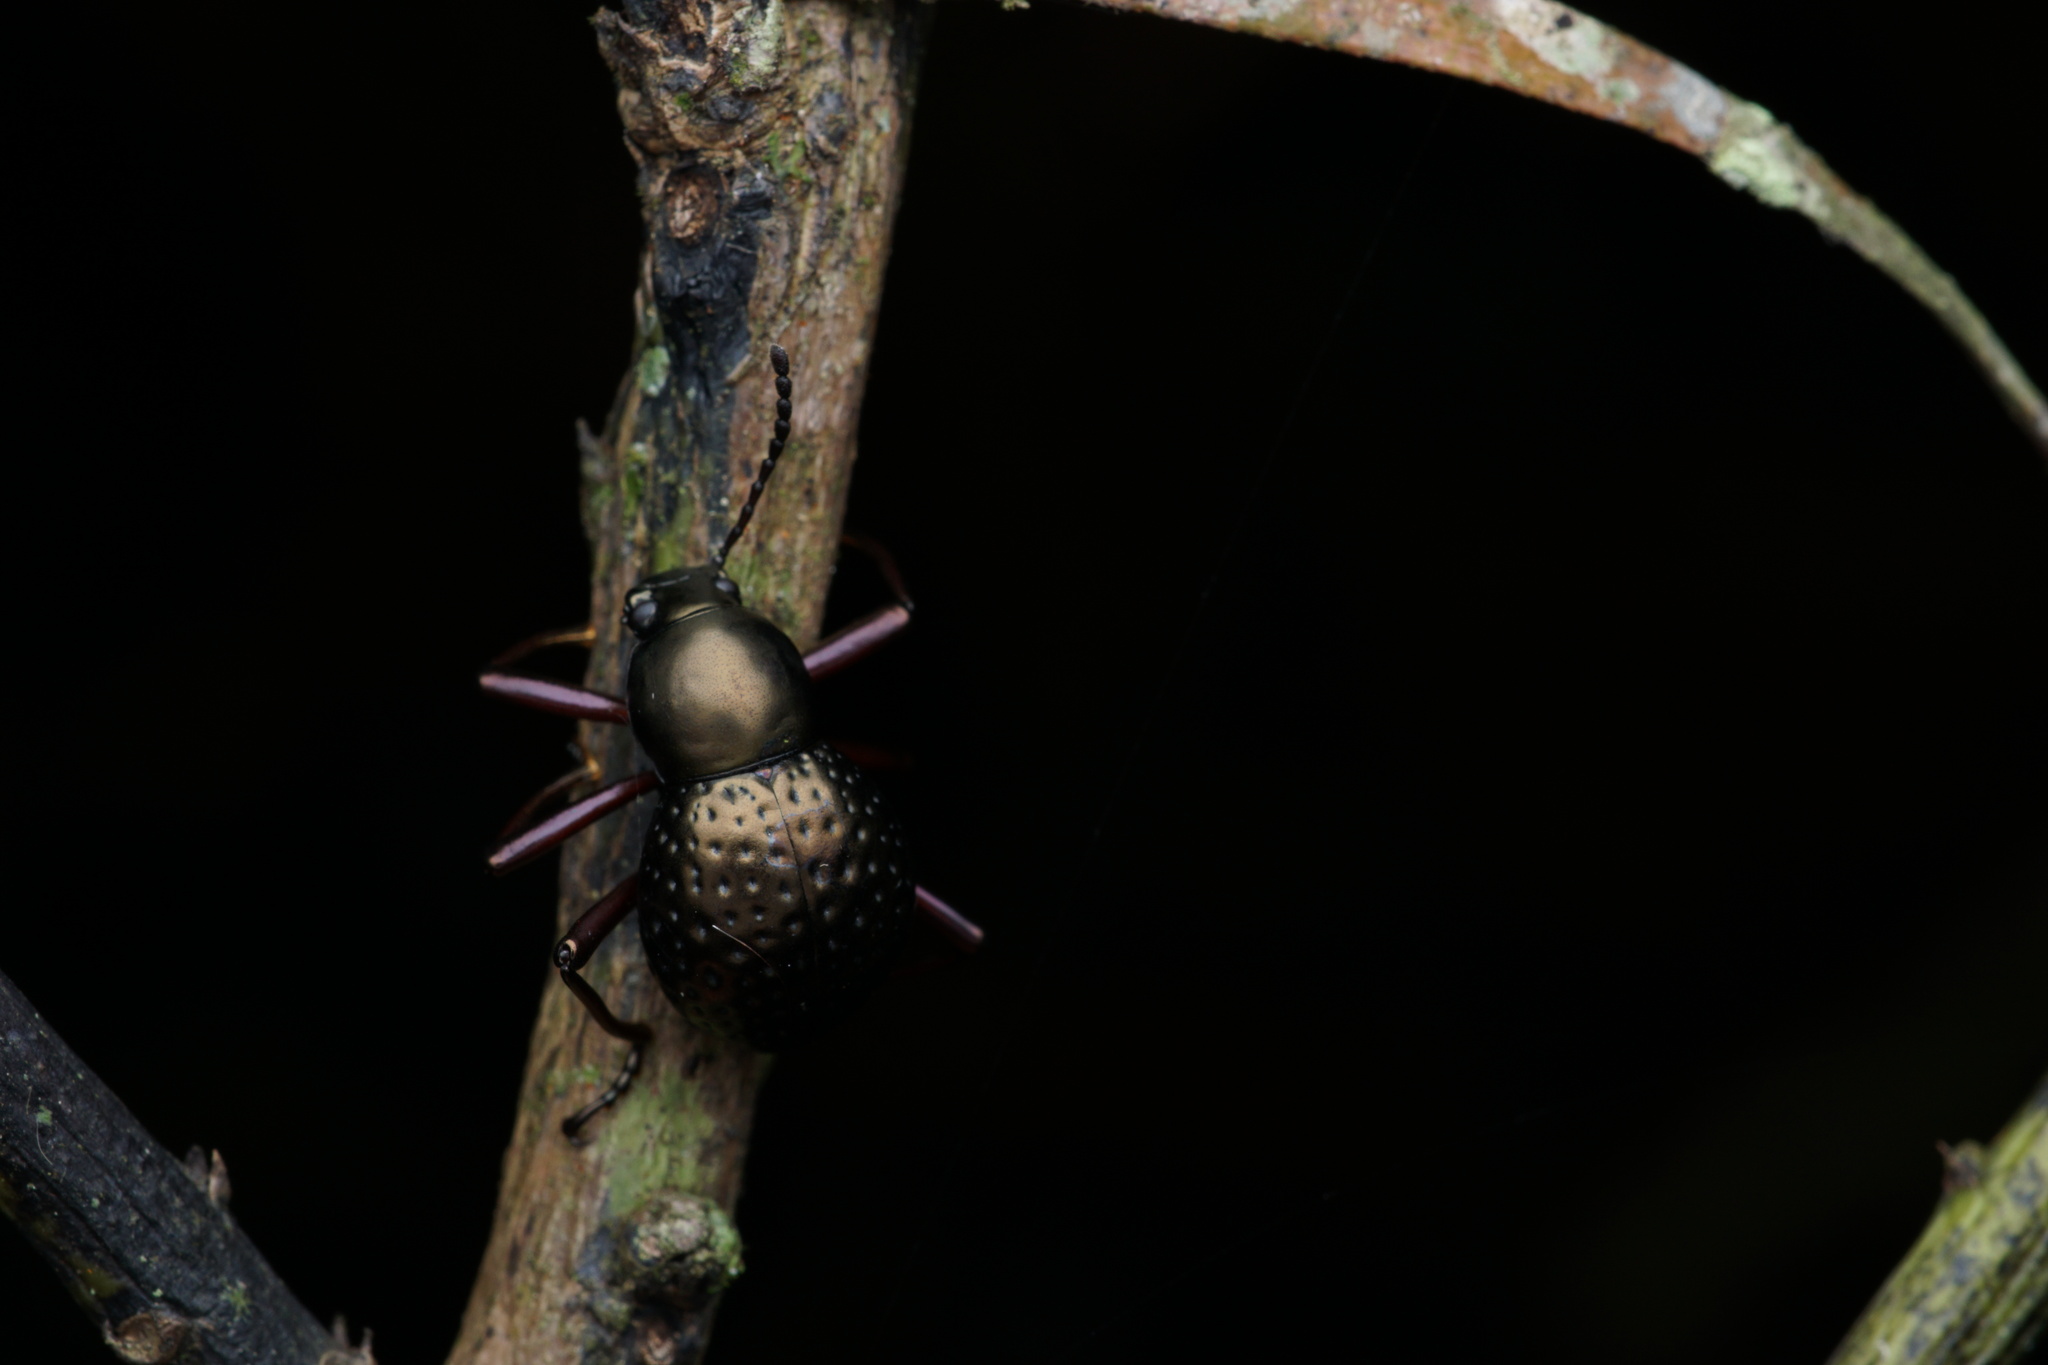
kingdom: Animalia
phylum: Arthropoda
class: Insecta
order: Coleoptera
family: Tenebrionidae
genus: Sphaerotus
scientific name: Sphaerotus
